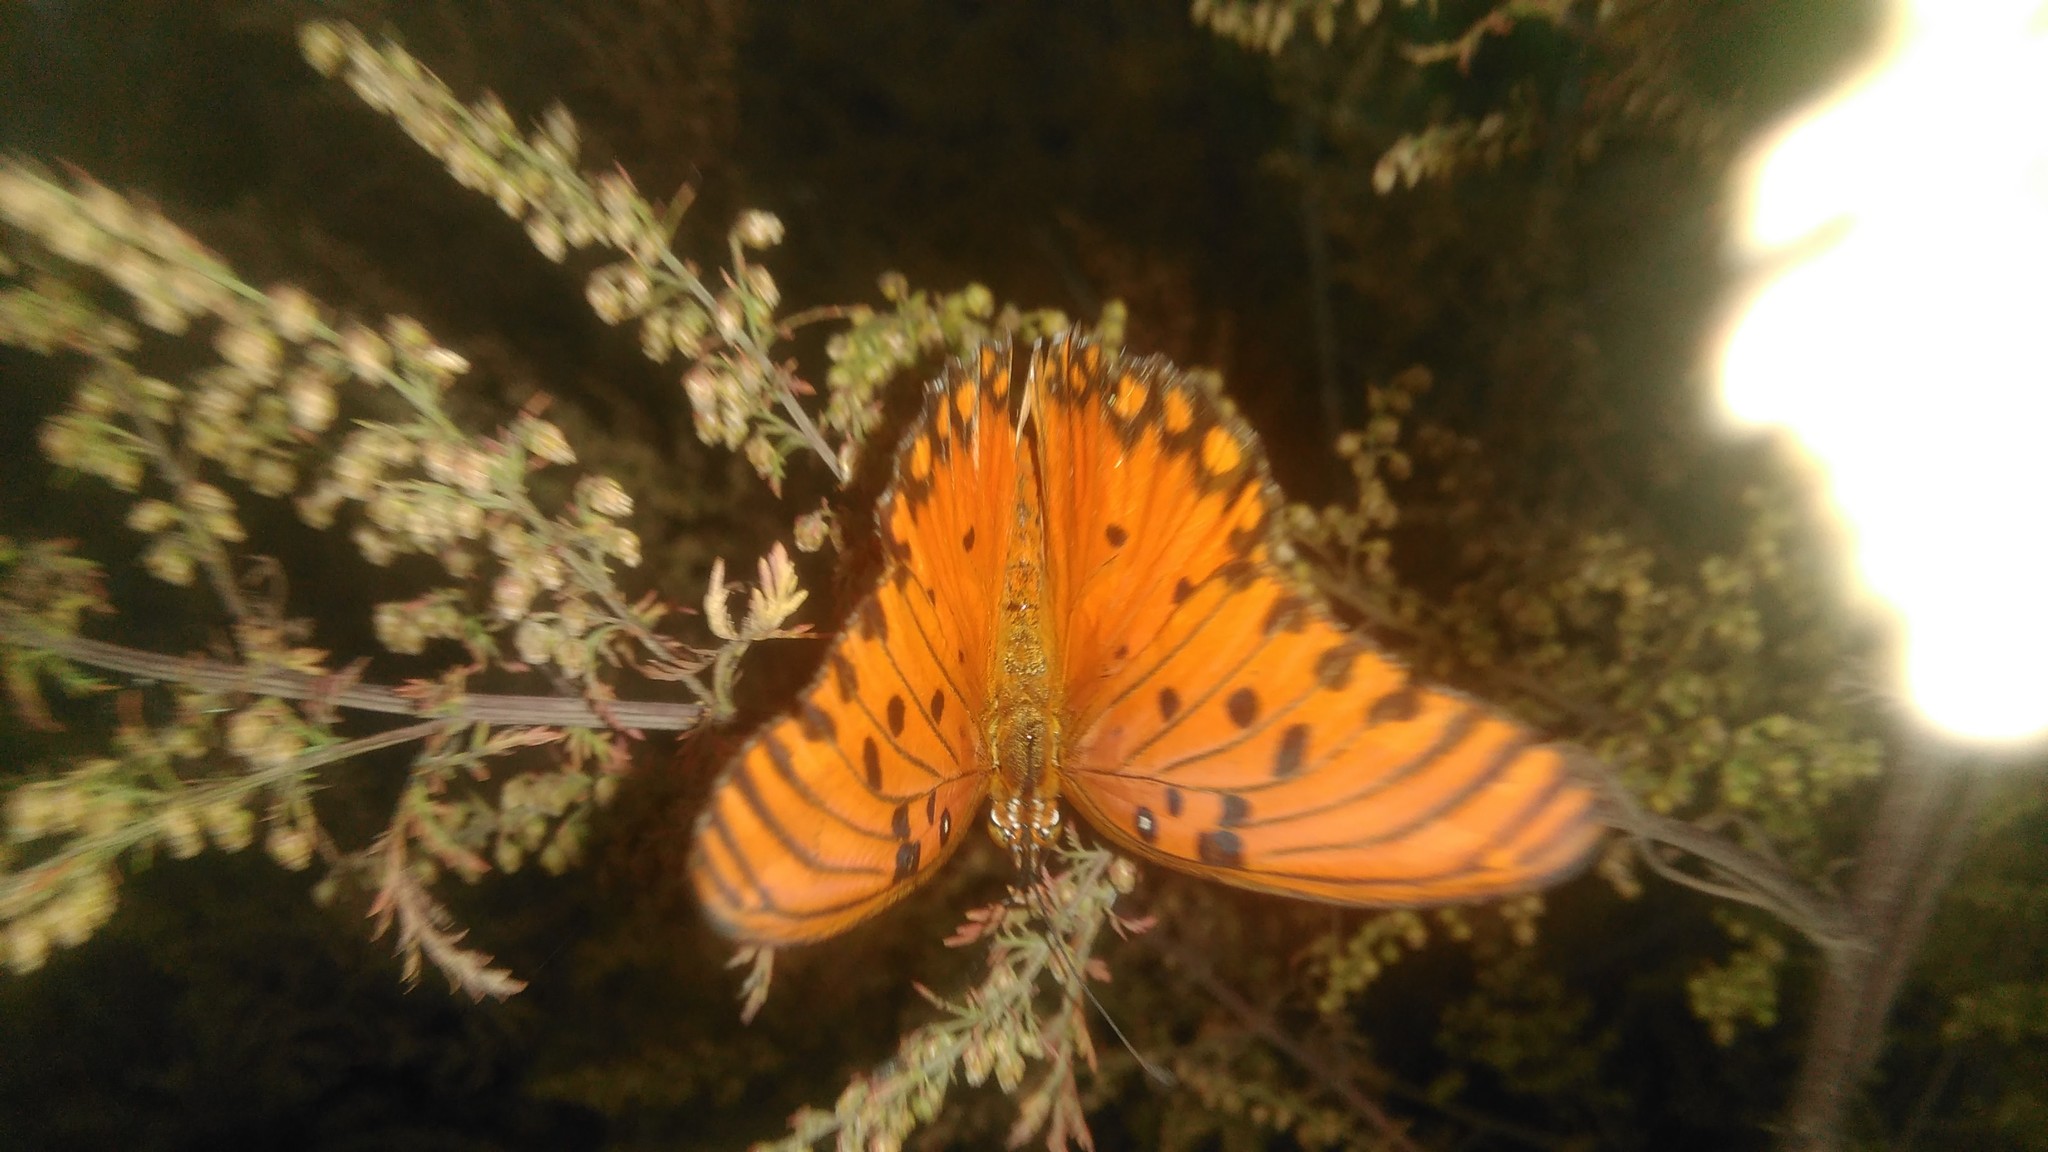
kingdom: Animalia
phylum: Arthropoda
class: Insecta
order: Lepidoptera
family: Nymphalidae
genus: Dione
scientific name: Dione vanillae
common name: Gulf fritillary
